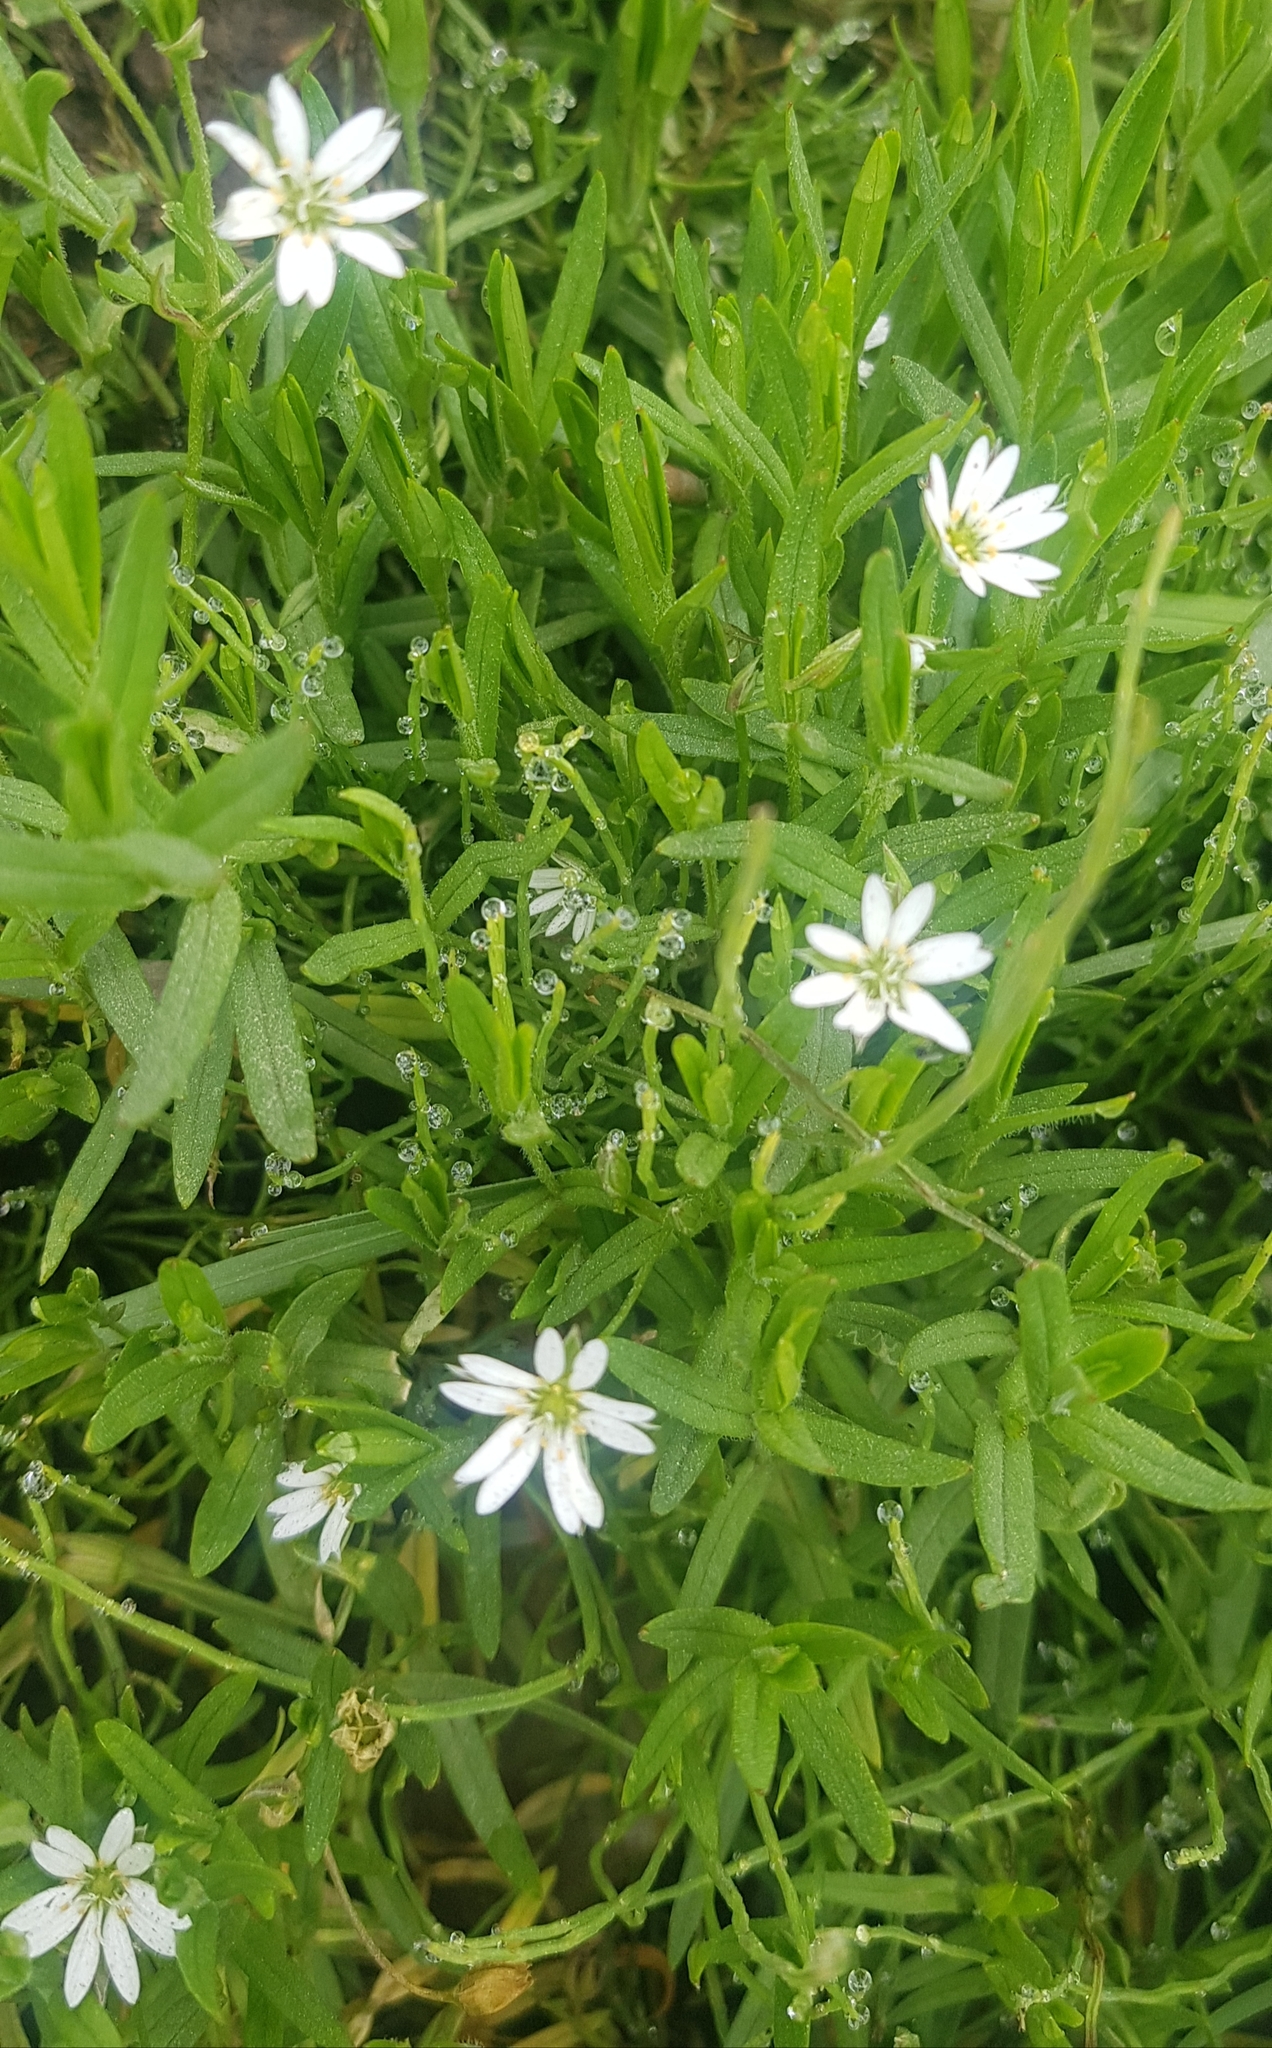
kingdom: Plantae
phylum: Tracheophyta
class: Magnoliopsida
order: Caryophyllales
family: Caryophyllaceae
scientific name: Caryophyllaceae
